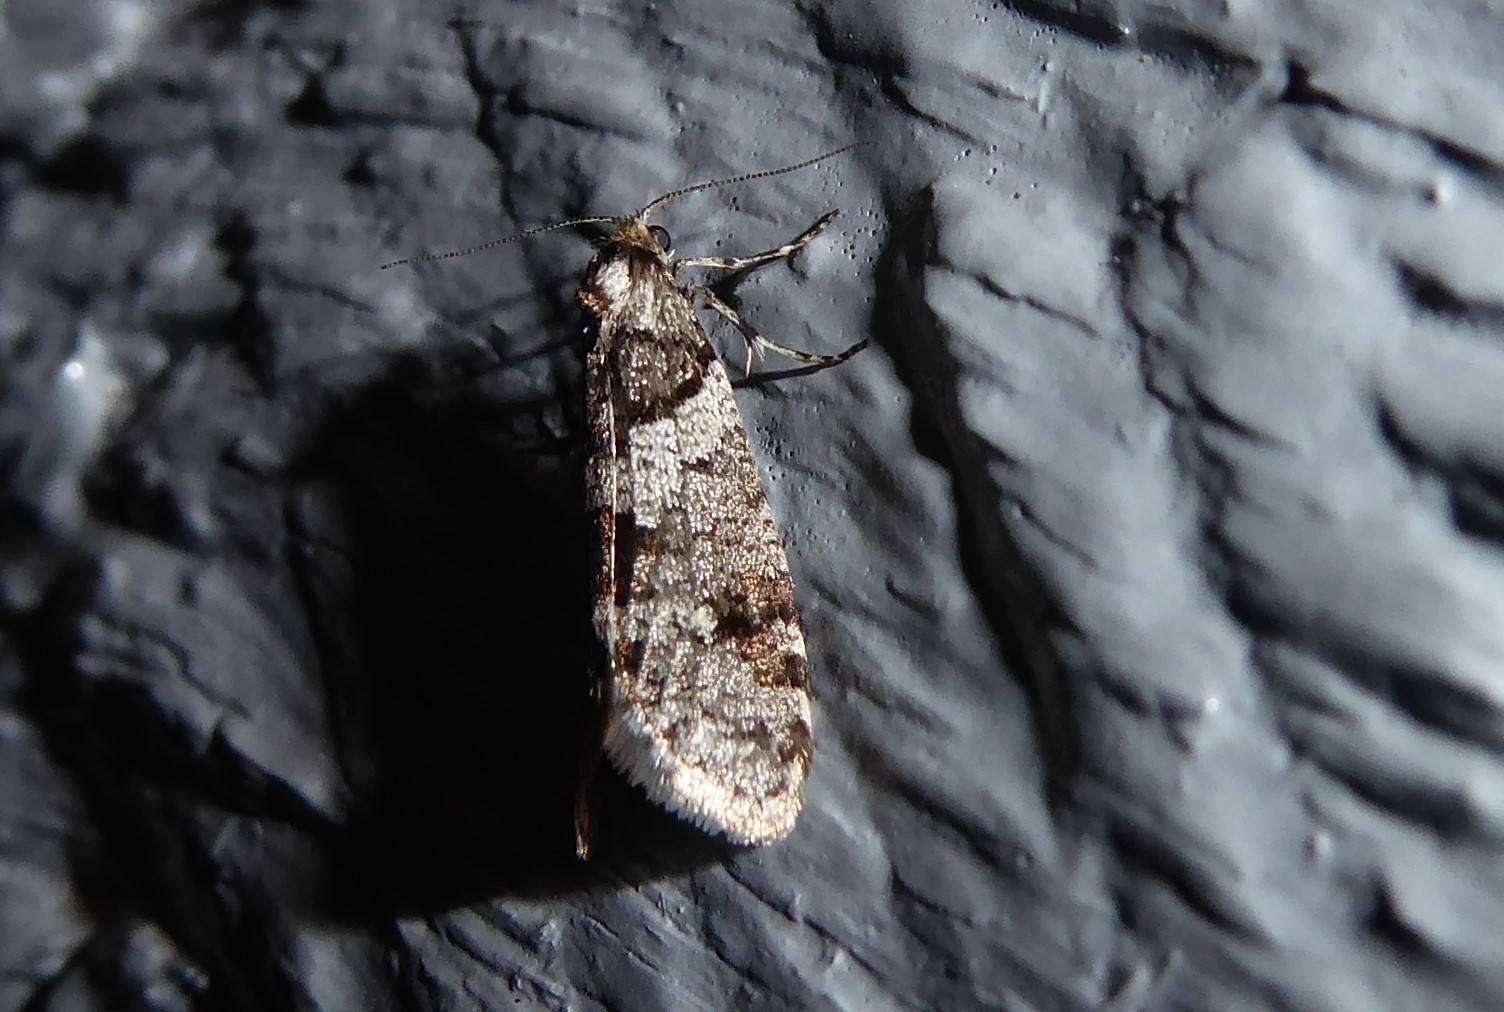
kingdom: Animalia
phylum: Arthropoda
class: Insecta
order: Lepidoptera
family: Psychidae
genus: Lepidoscia
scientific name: Lepidoscia heliochares
